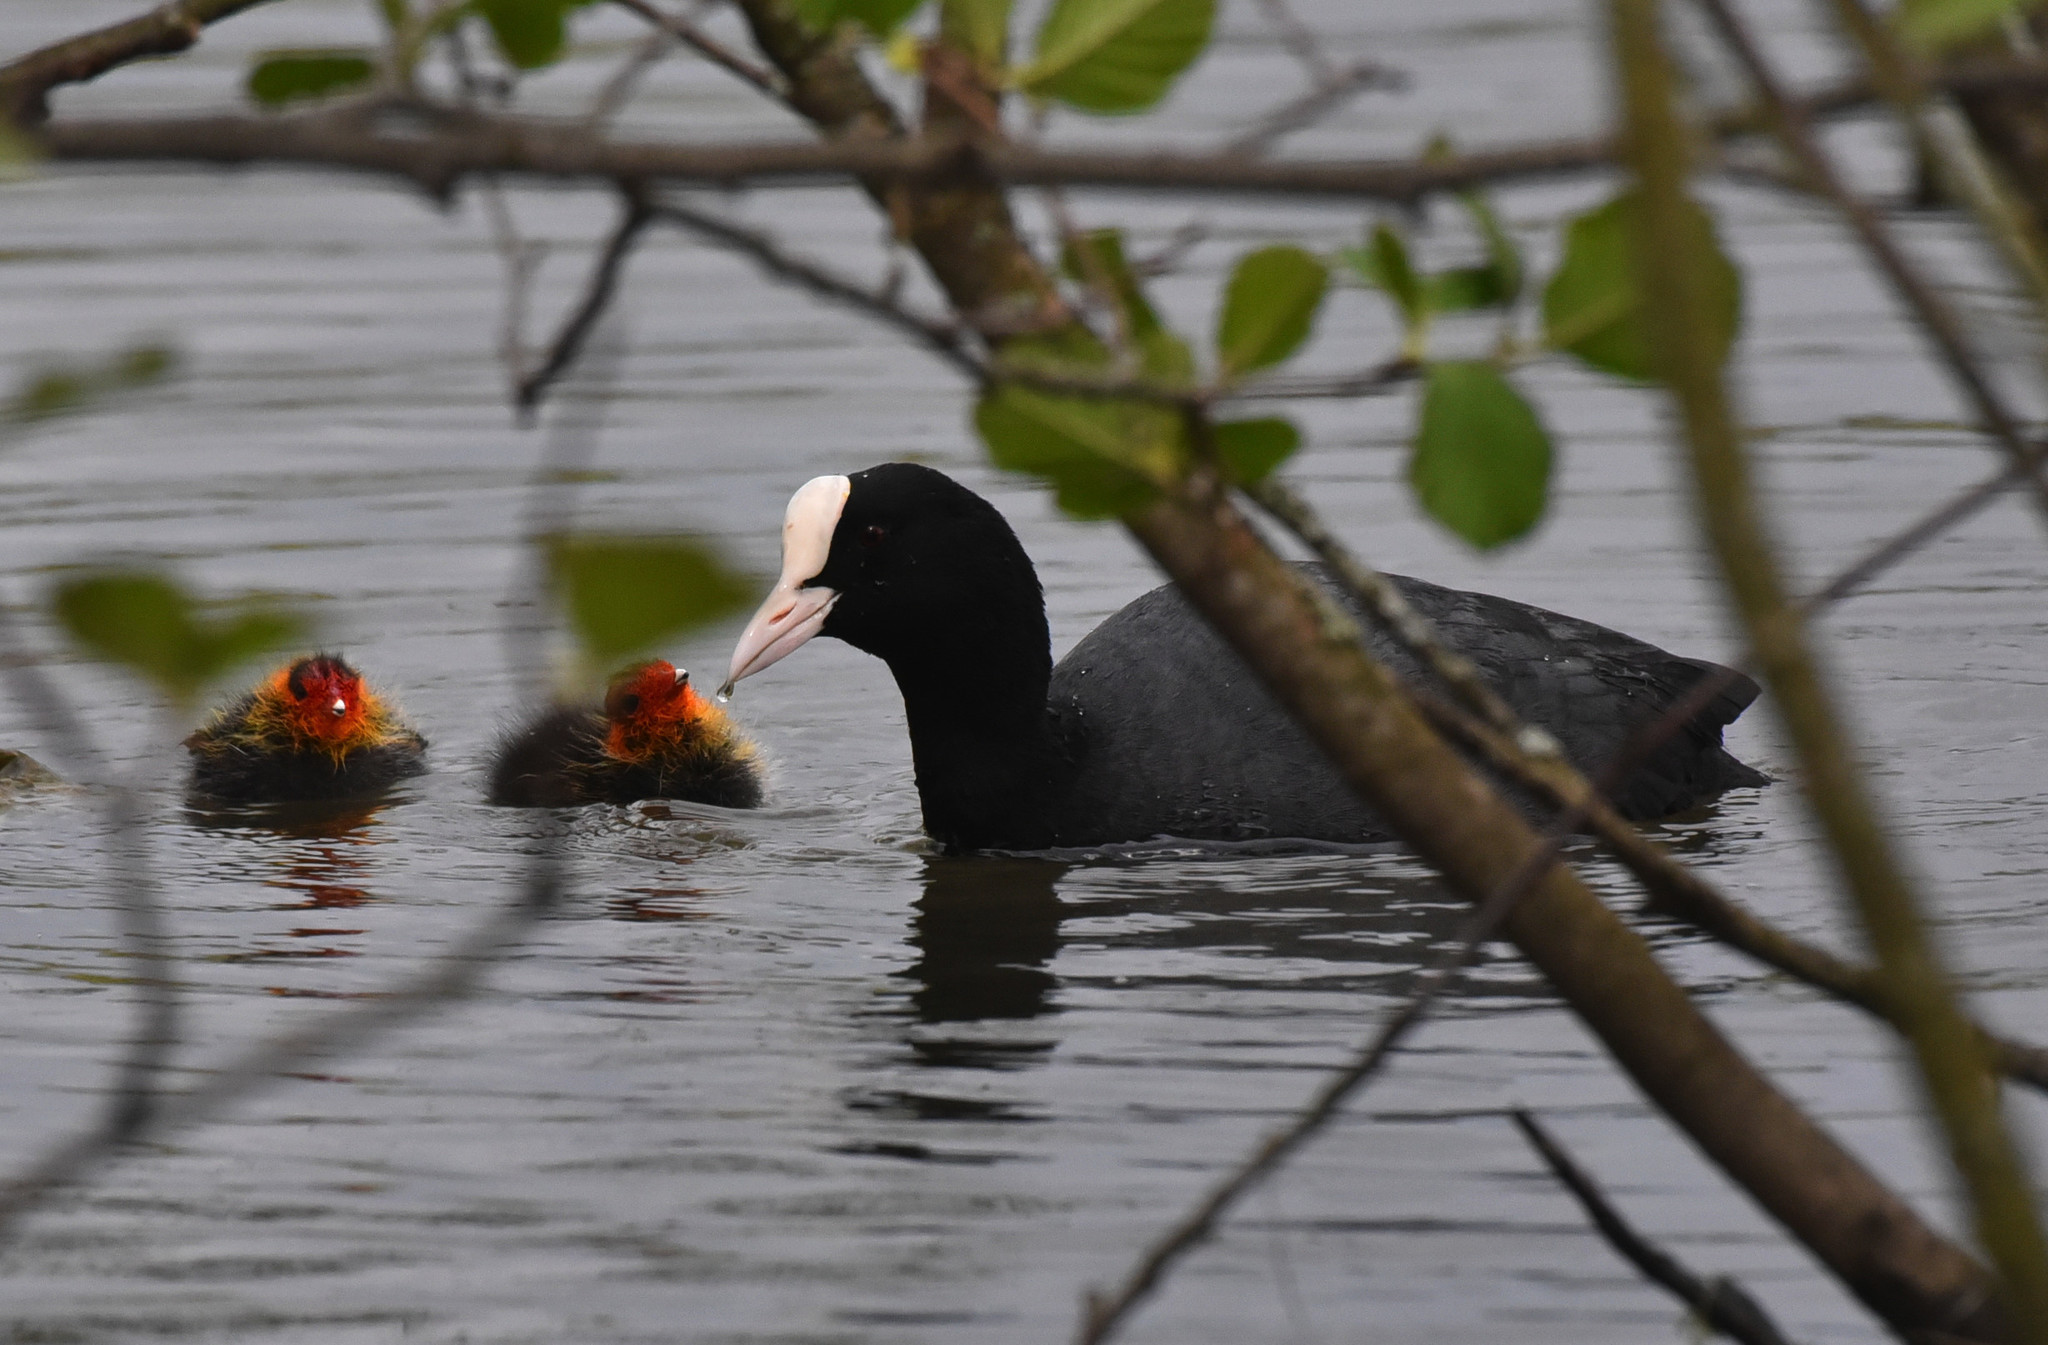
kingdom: Animalia
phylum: Chordata
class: Aves
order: Gruiformes
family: Rallidae
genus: Fulica
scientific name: Fulica atra
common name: Eurasian coot
